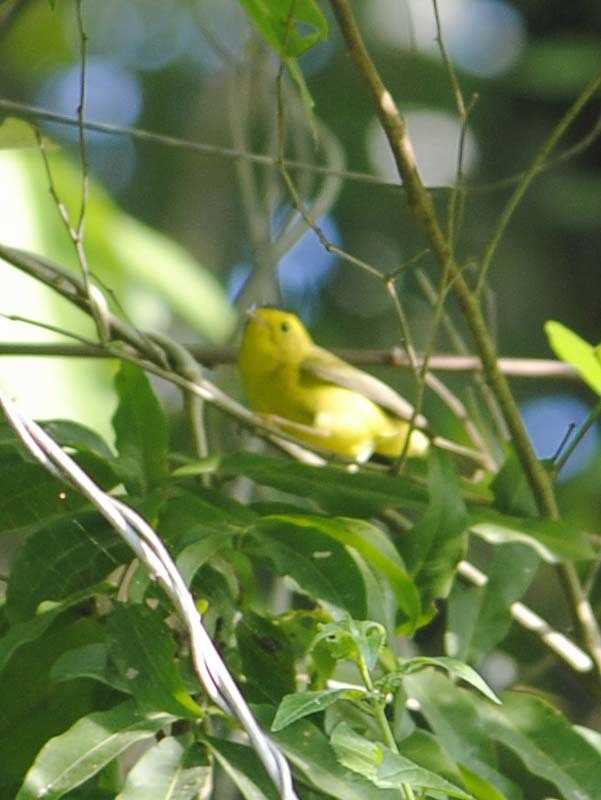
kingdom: Animalia
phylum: Chordata
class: Aves
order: Passeriformes
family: Parulidae
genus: Cardellina
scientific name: Cardellina pusilla
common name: Wilson's warbler
